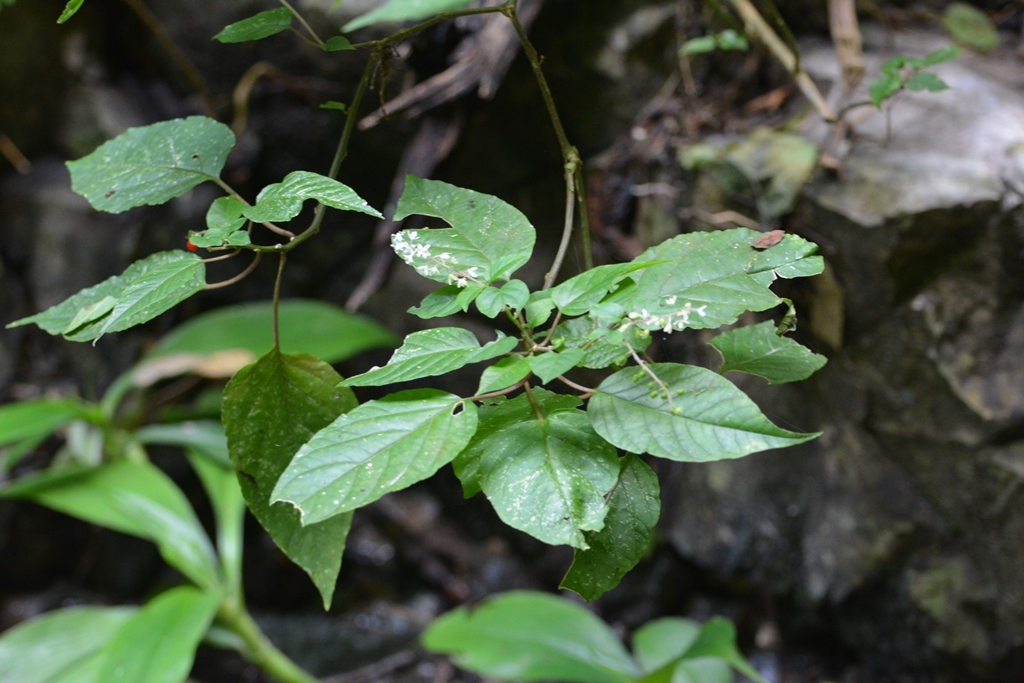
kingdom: Plantae
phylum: Tracheophyta
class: Magnoliopsida
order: Caryophyllales
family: Phytolaccaceae
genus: Rivina
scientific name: Rivina humilis
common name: Rougeplant
